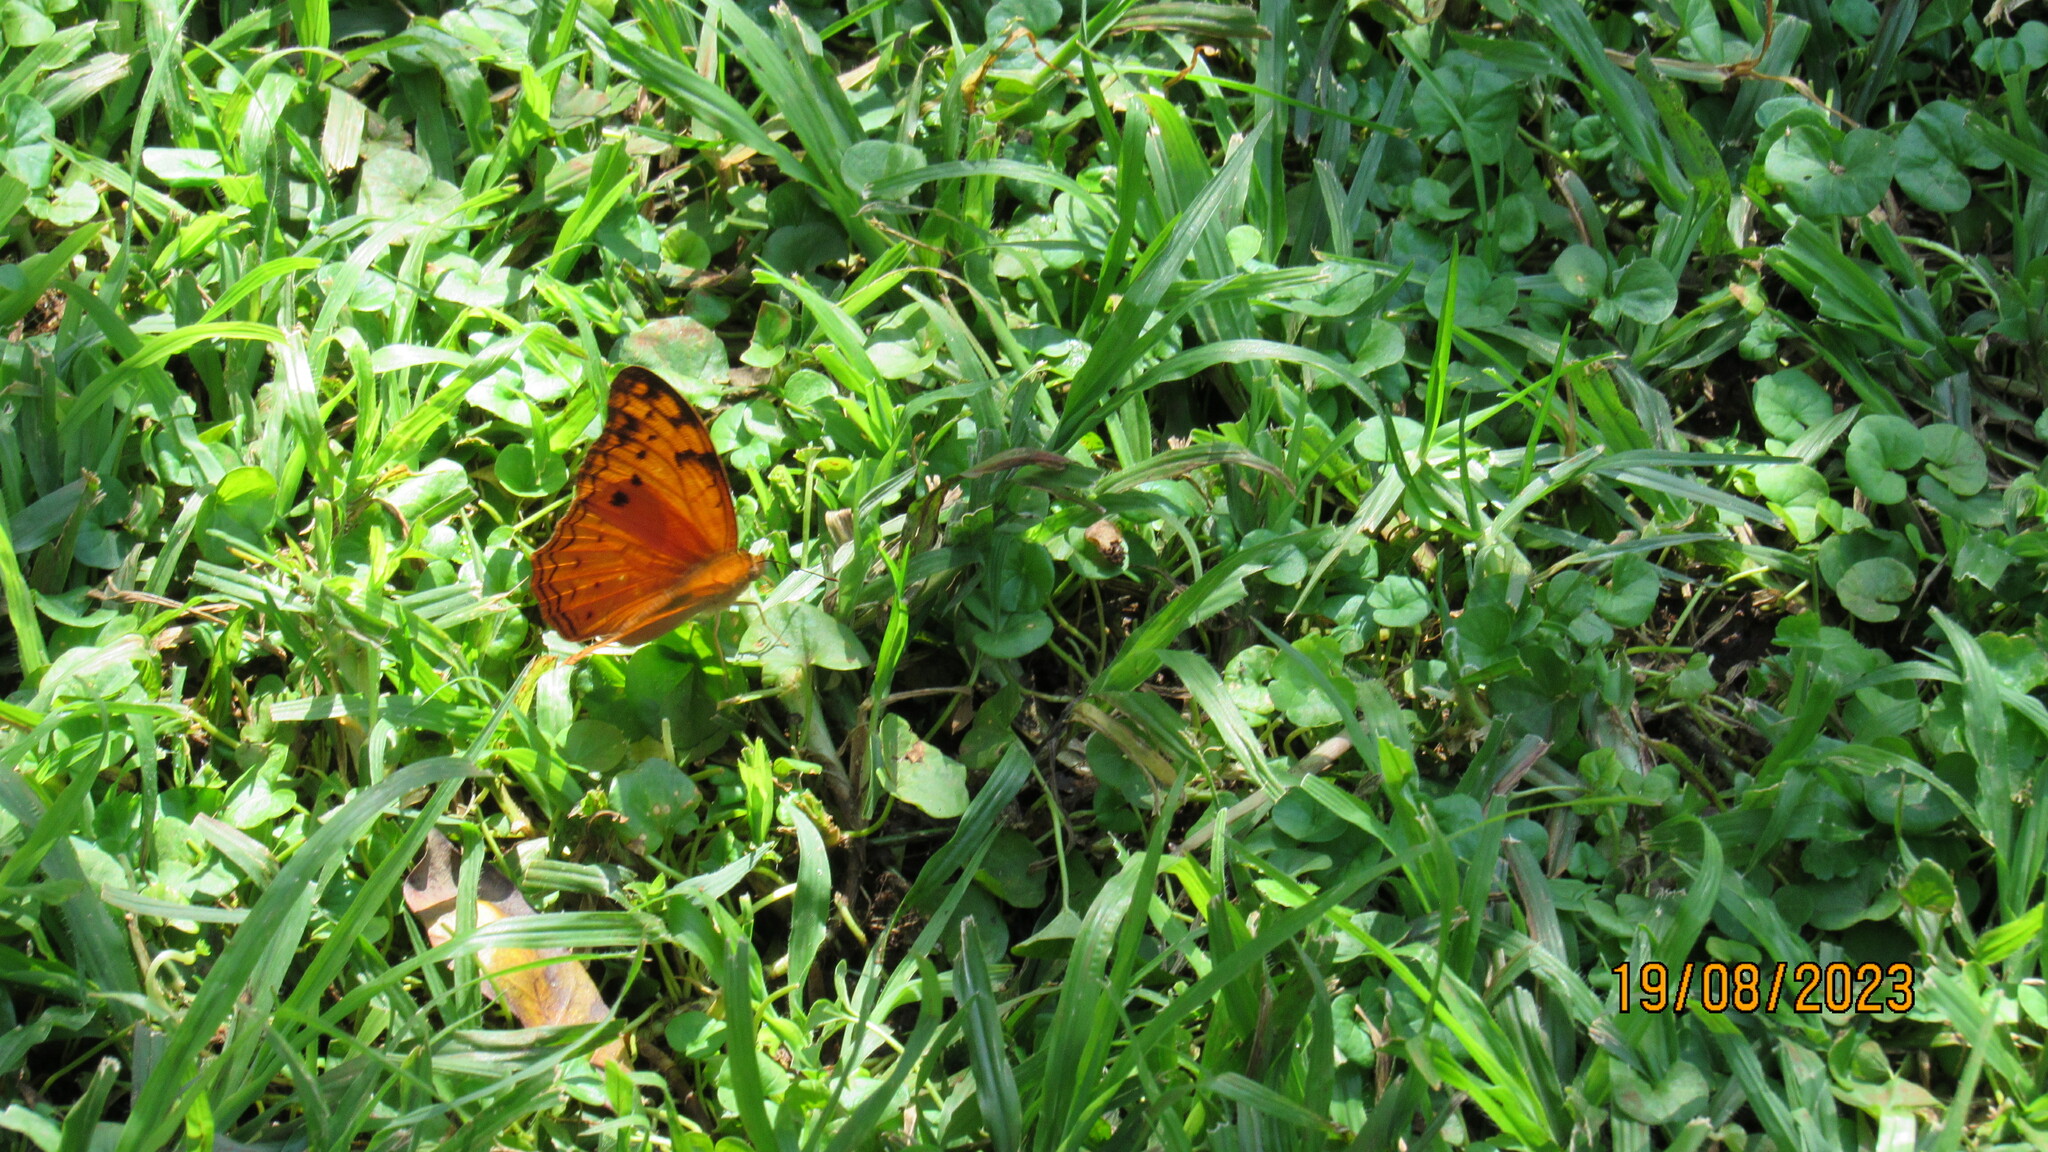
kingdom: Animalia
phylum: Arthropoda
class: Insecta
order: Lepidoptera
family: Nymphalidae
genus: Lachnoptera
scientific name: Lachnoptera ayresii
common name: Blotched leopard
